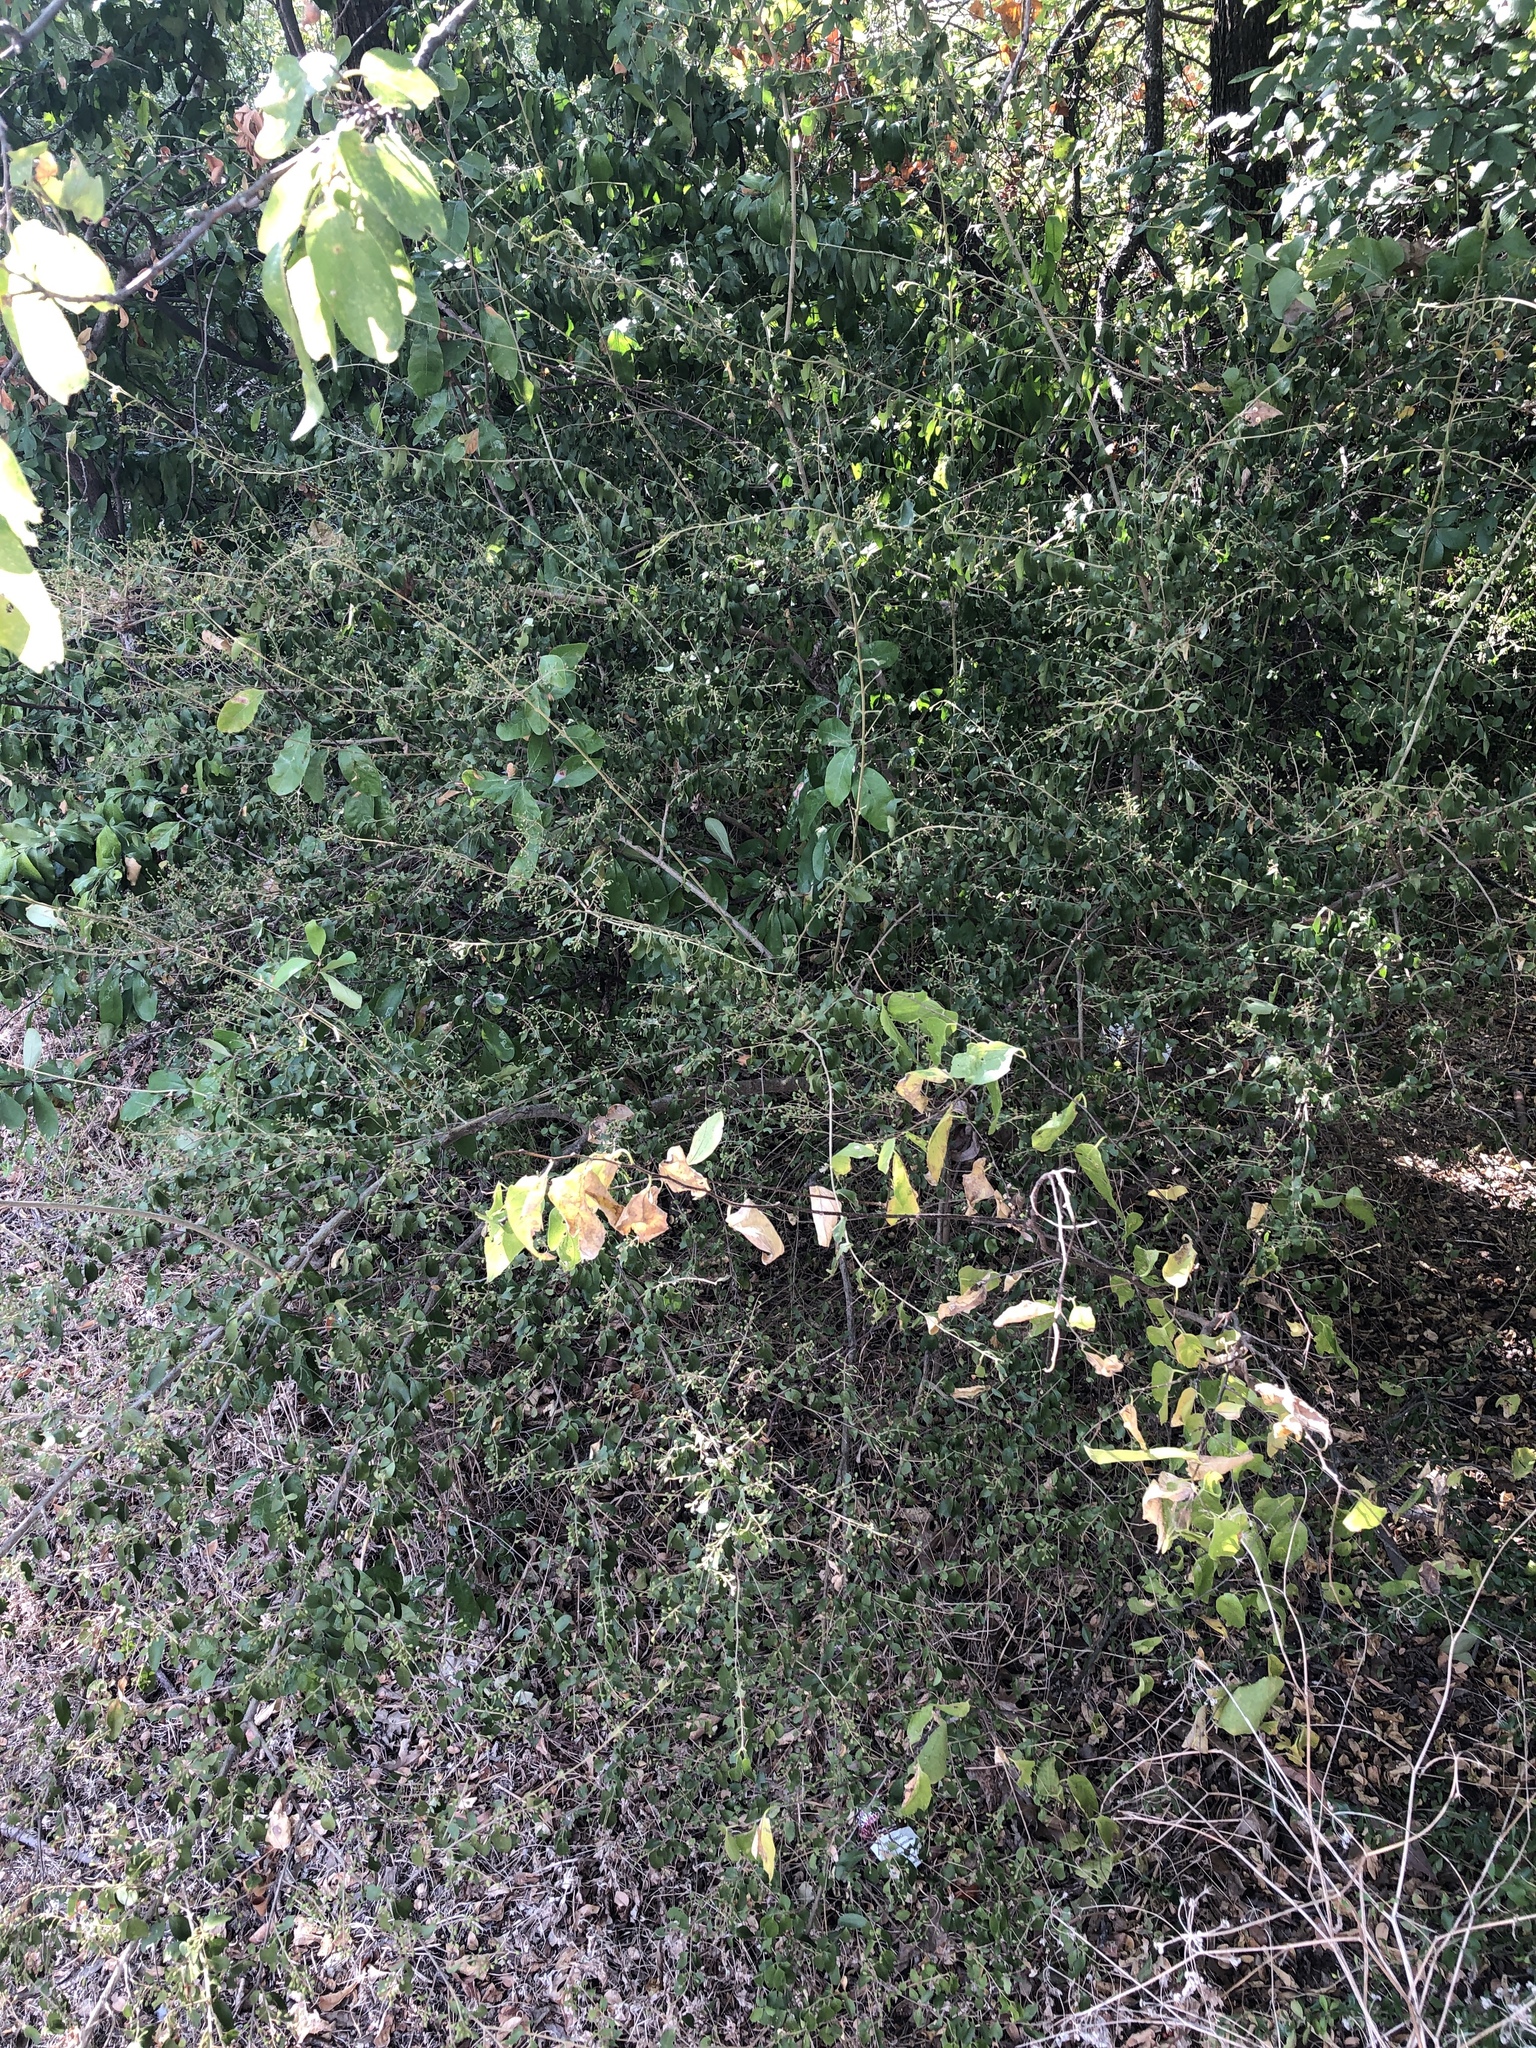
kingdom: Plantae
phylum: Tracheophyta
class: Magnoliopsida
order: Lamiales
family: Oleaceae
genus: Ligustrum
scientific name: Ligustrum sinense
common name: Chinese privet
